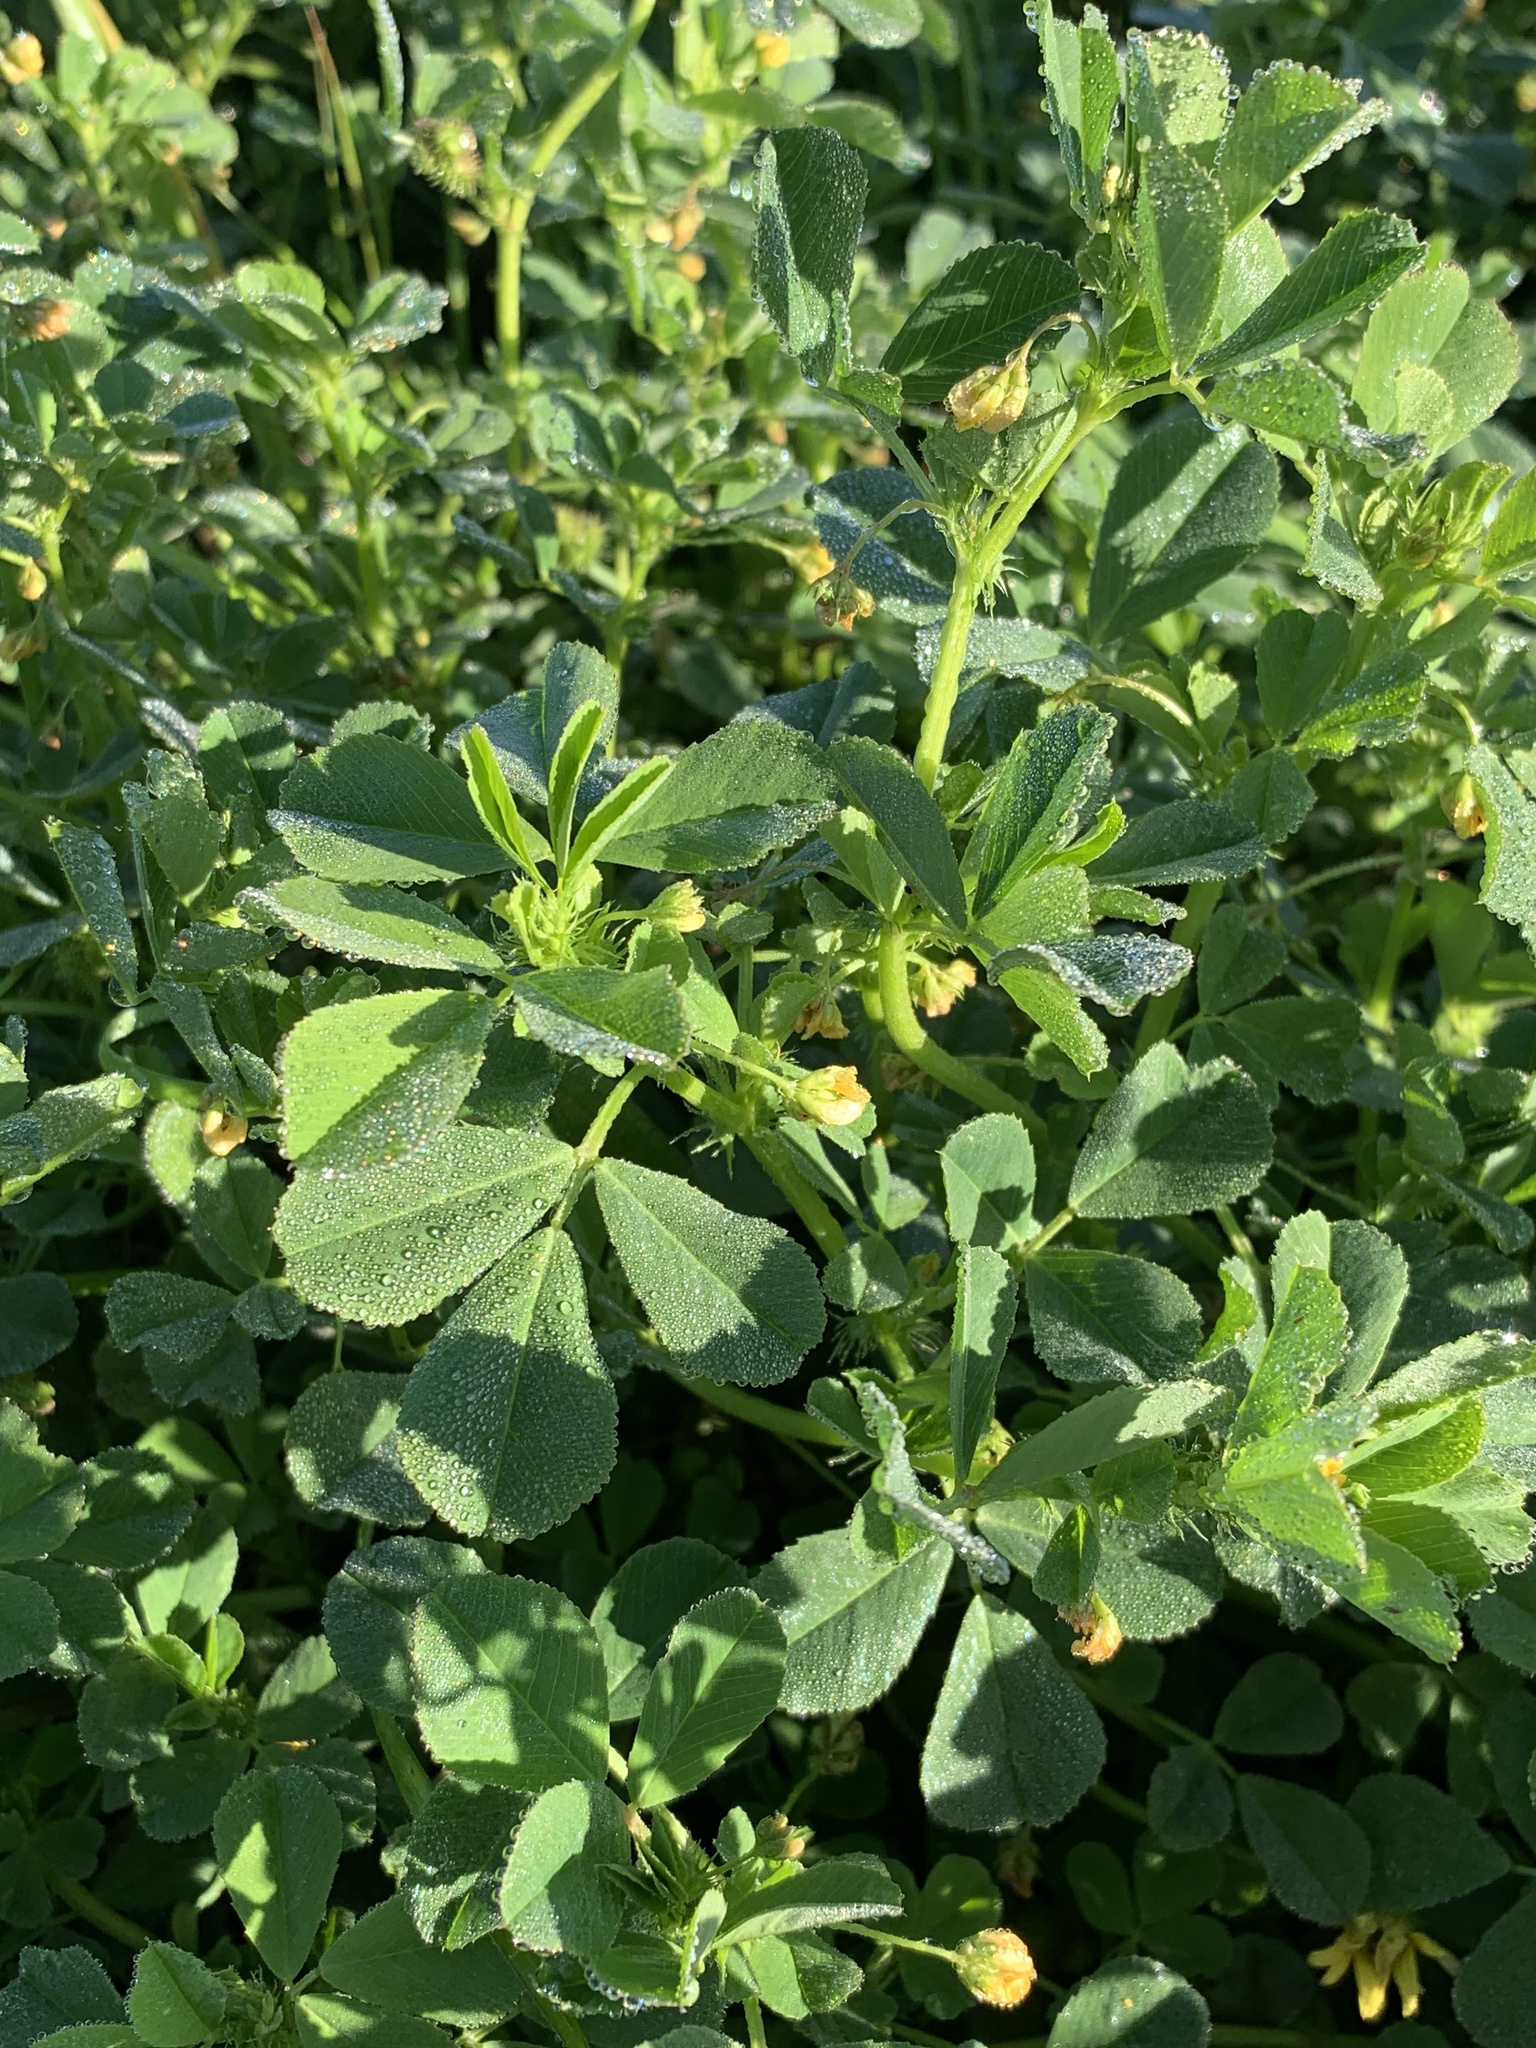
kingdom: Plantae
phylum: Tracheophyta
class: Magnoliopsida
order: Fabales
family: Fabaceae
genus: Medicago
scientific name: Medicago polymorpha
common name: Burclover
